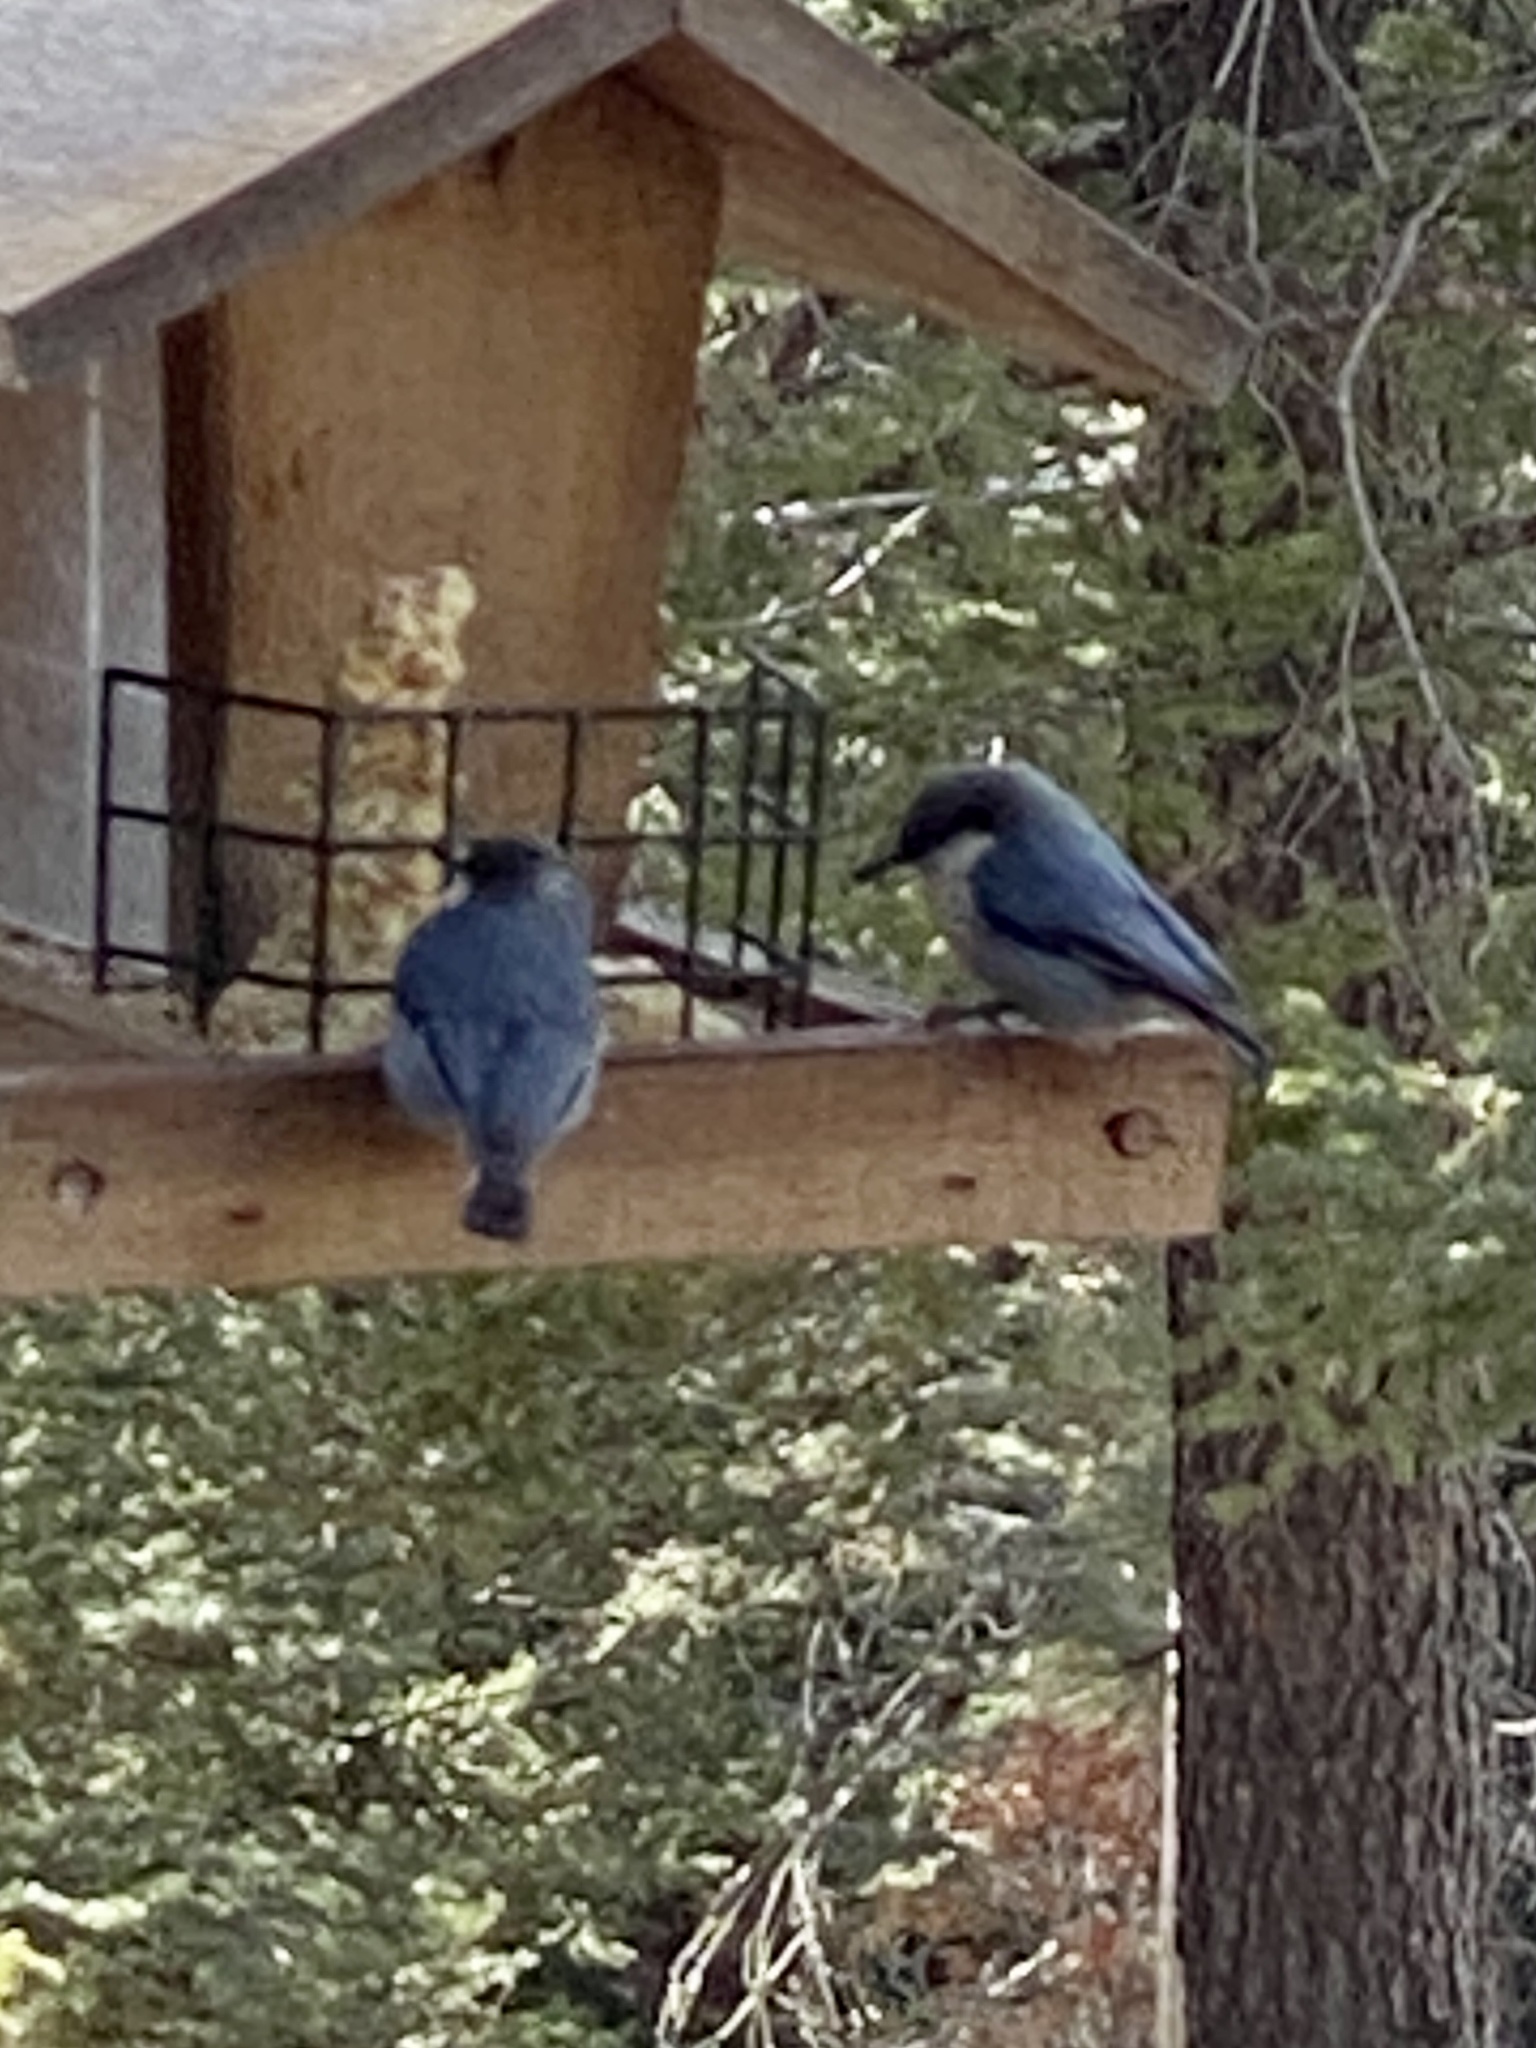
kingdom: Animalia
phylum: Chordata
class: Aves
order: Passeriformes
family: Sittidae
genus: Sitta
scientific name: Sitta pygmaea
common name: Pygmy nuthatch
